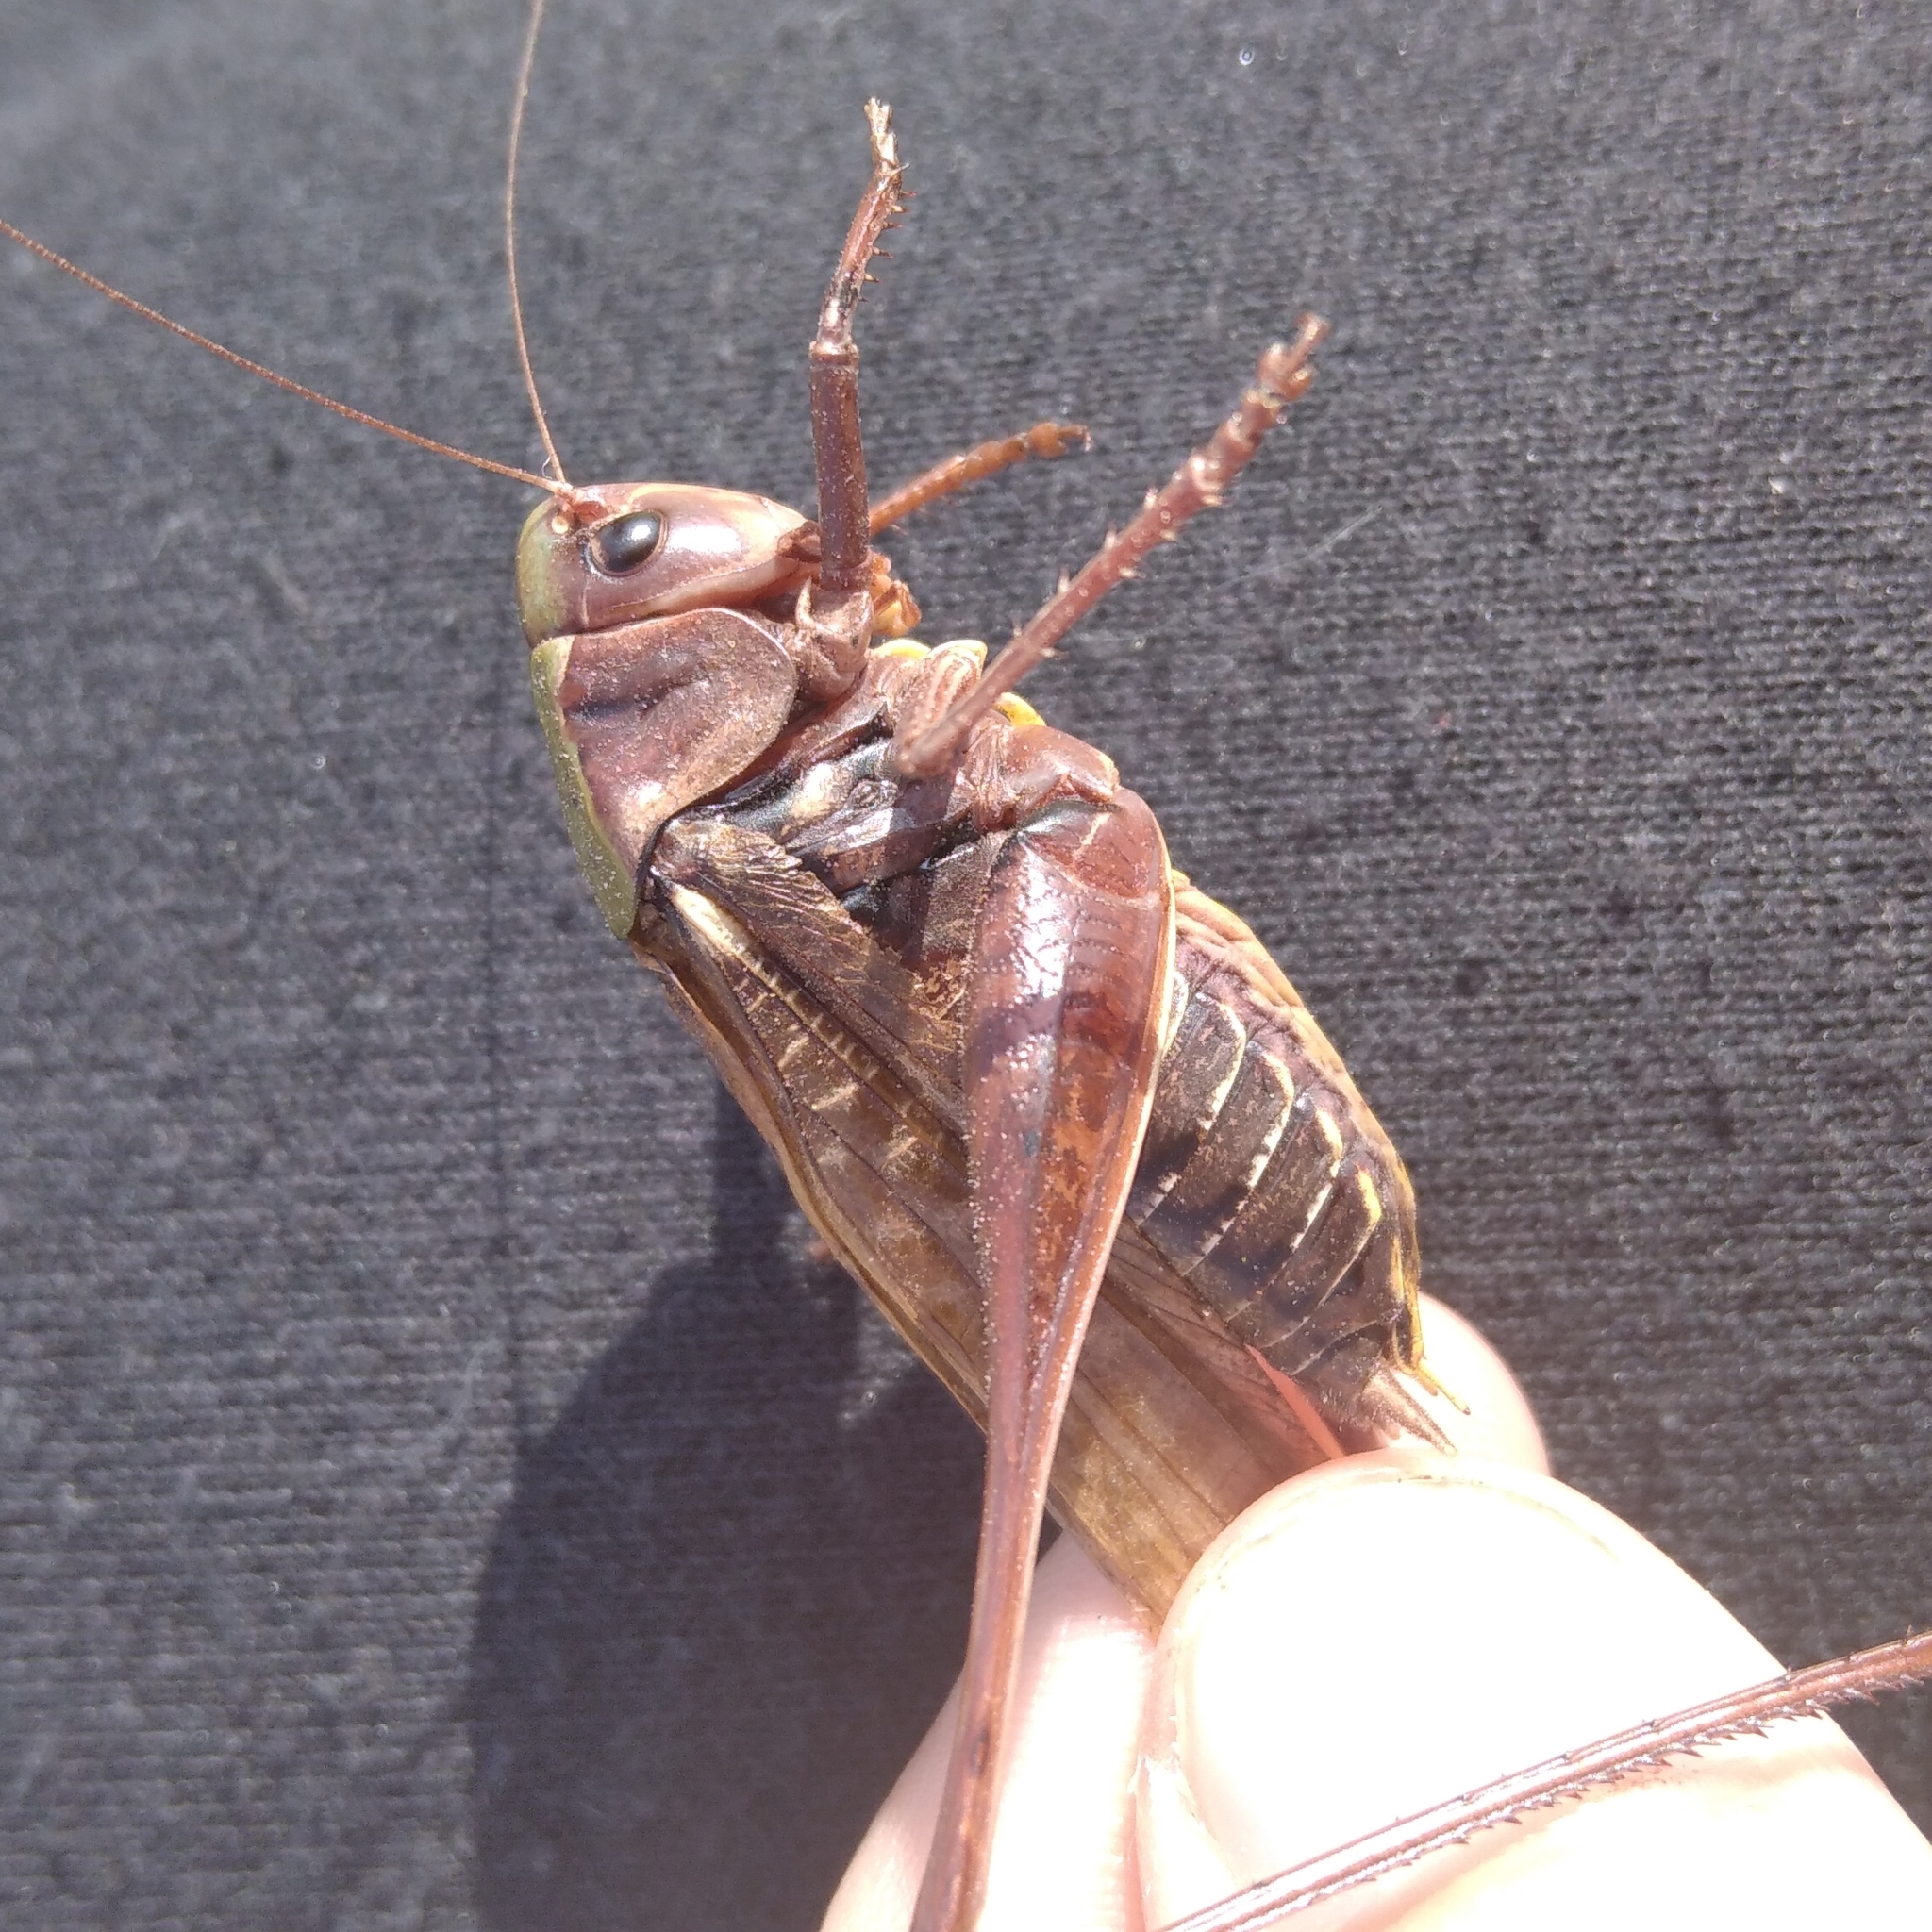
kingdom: Animalia
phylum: Arthropoda
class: Insecta
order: Orthoptera
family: Tettigoniidae
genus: Decticus
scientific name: Decticus verrucivorus
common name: Wart-biter
